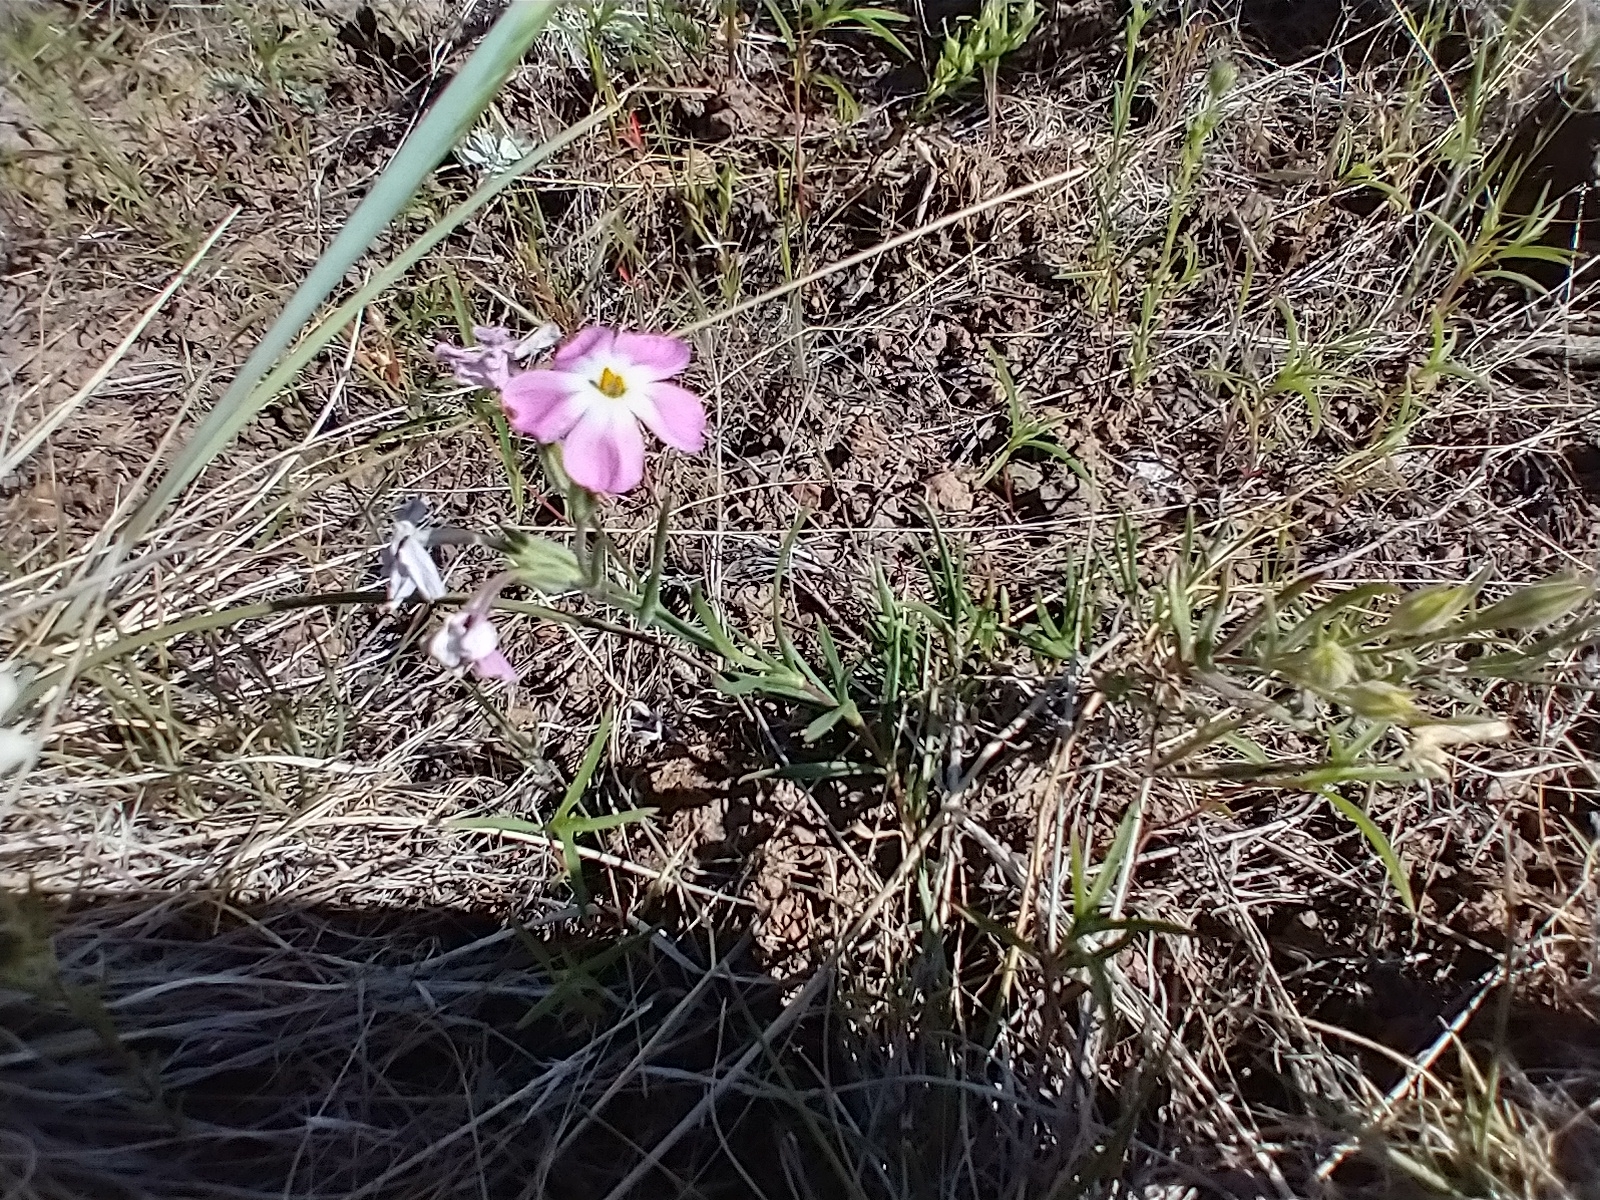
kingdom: Plantae
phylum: Tracheophyta
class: Magnoliopsida
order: Ericales
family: Polemoniaceae
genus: Phlox
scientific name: Phlox longifolia
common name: Longleaf phlox
